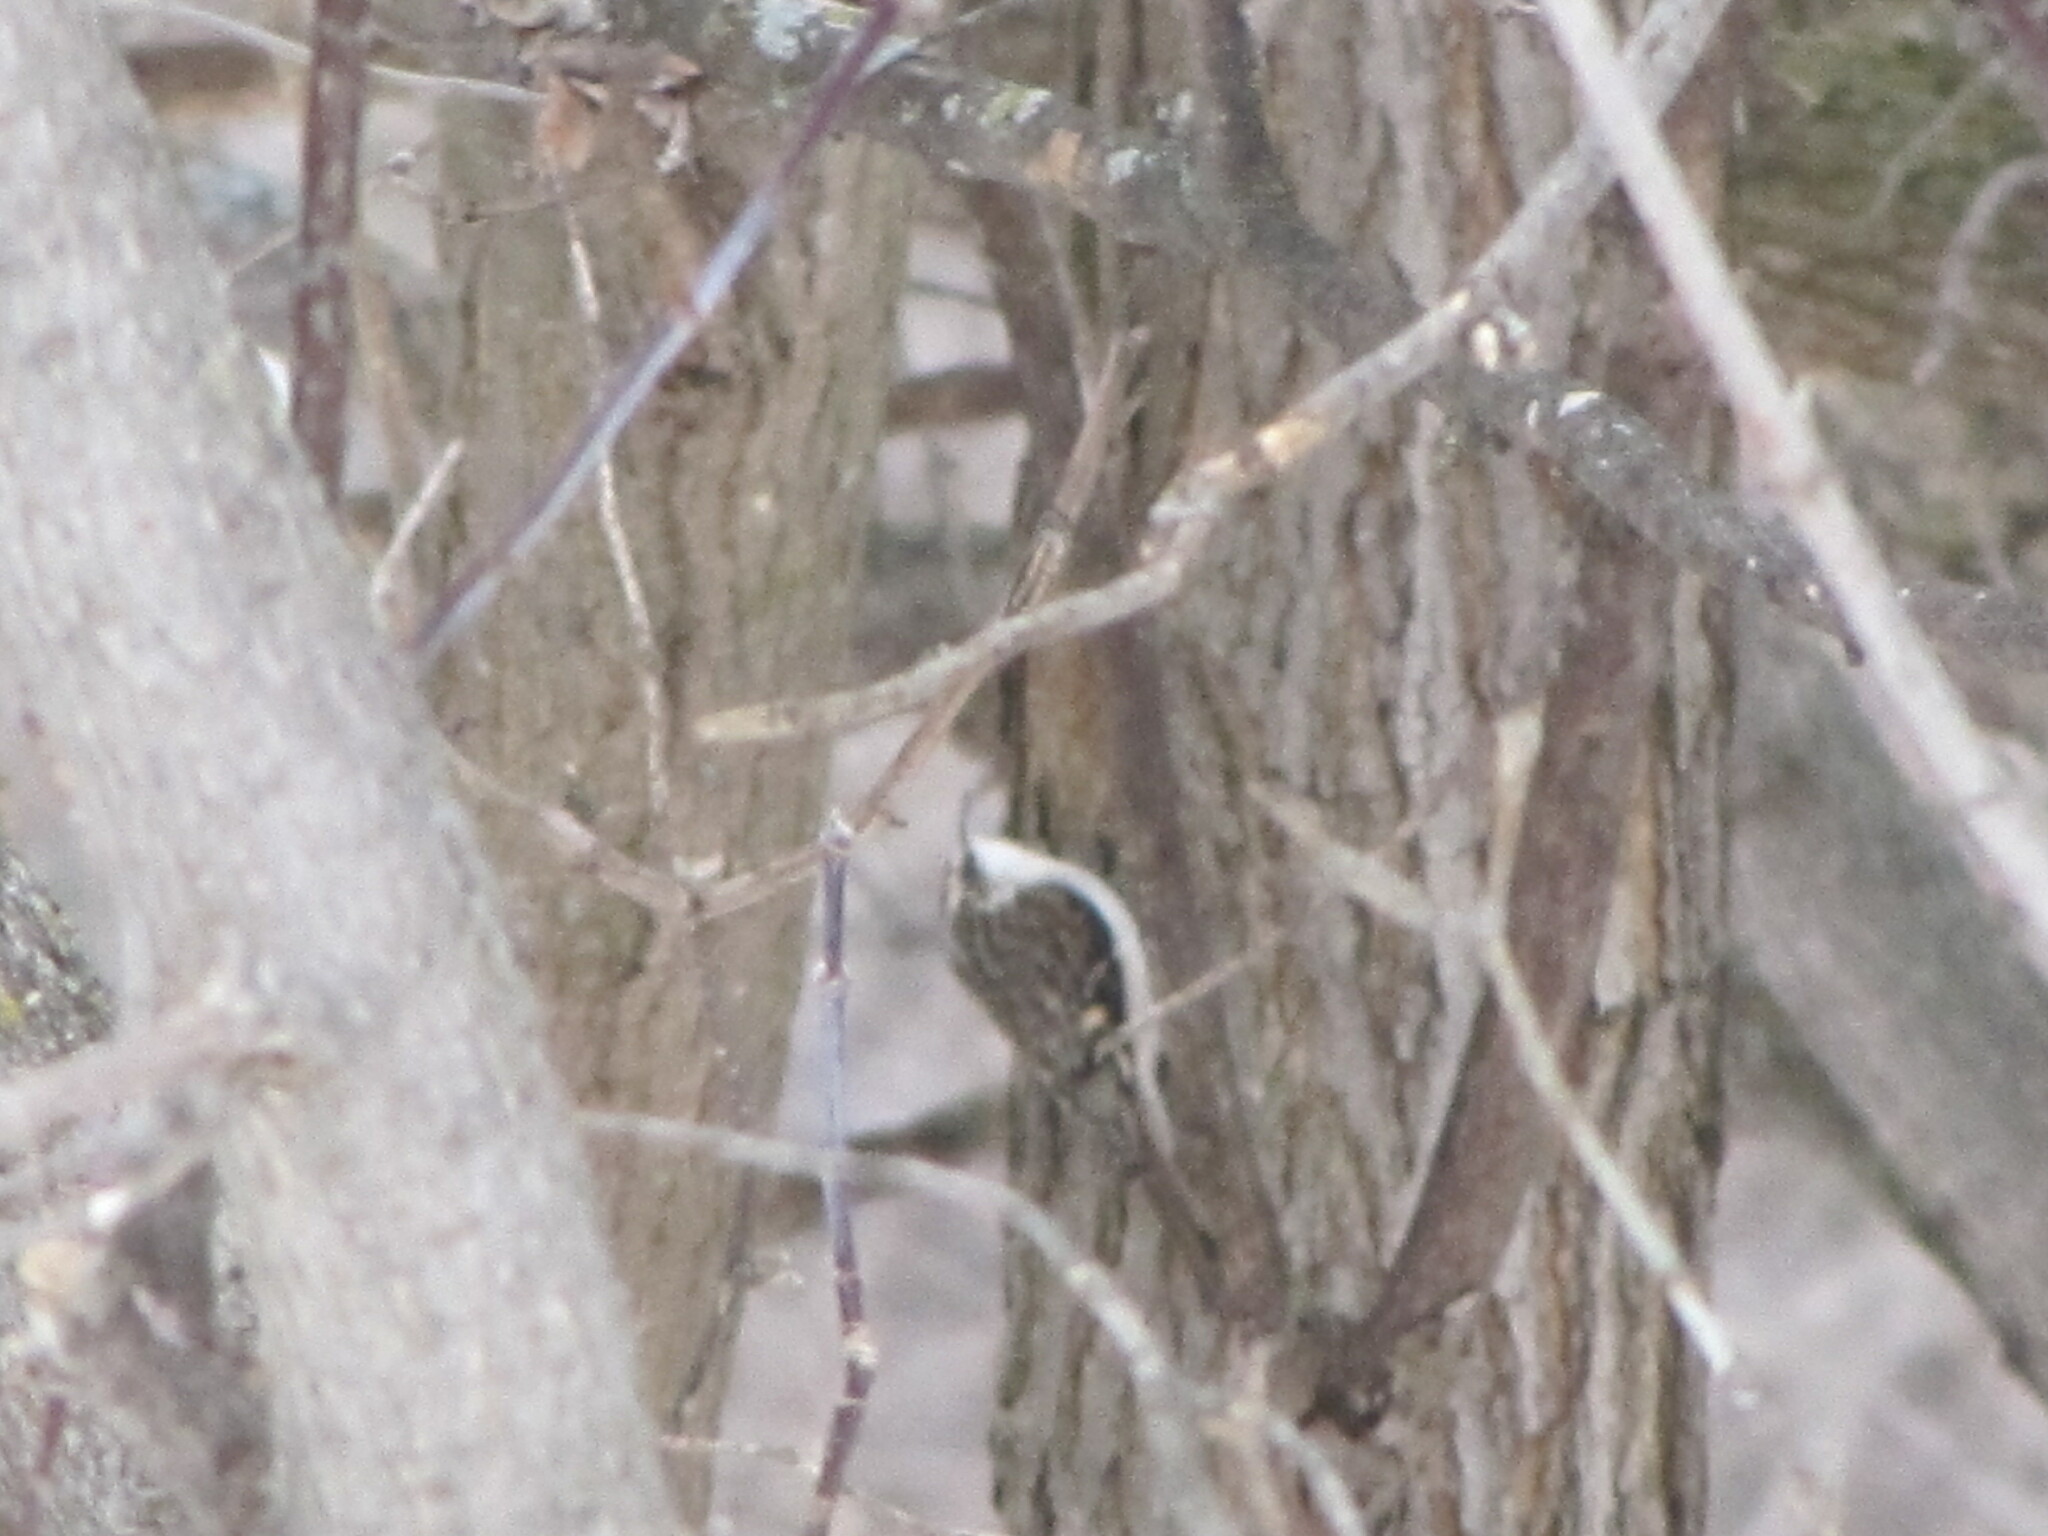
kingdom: Animalia
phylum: Chordata
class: Aves
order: Passeriformes
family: Certhiidae
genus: Certhia
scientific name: Certhia americana
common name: Brown creeper
